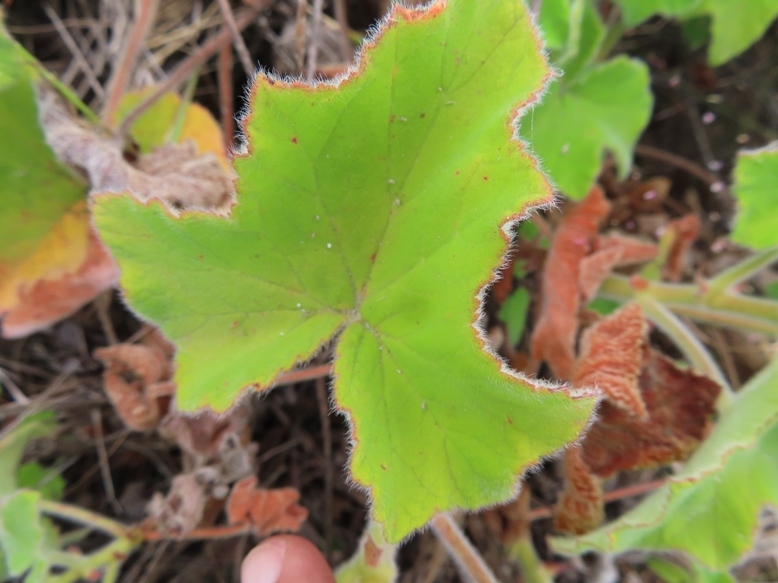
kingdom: Plantae
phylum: Tracheophyta
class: Magnoliopsida
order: Geraniales
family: Geraniaceae
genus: Pelargonium
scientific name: Pelargonium tomentosum
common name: Peppermint-scented geranium
